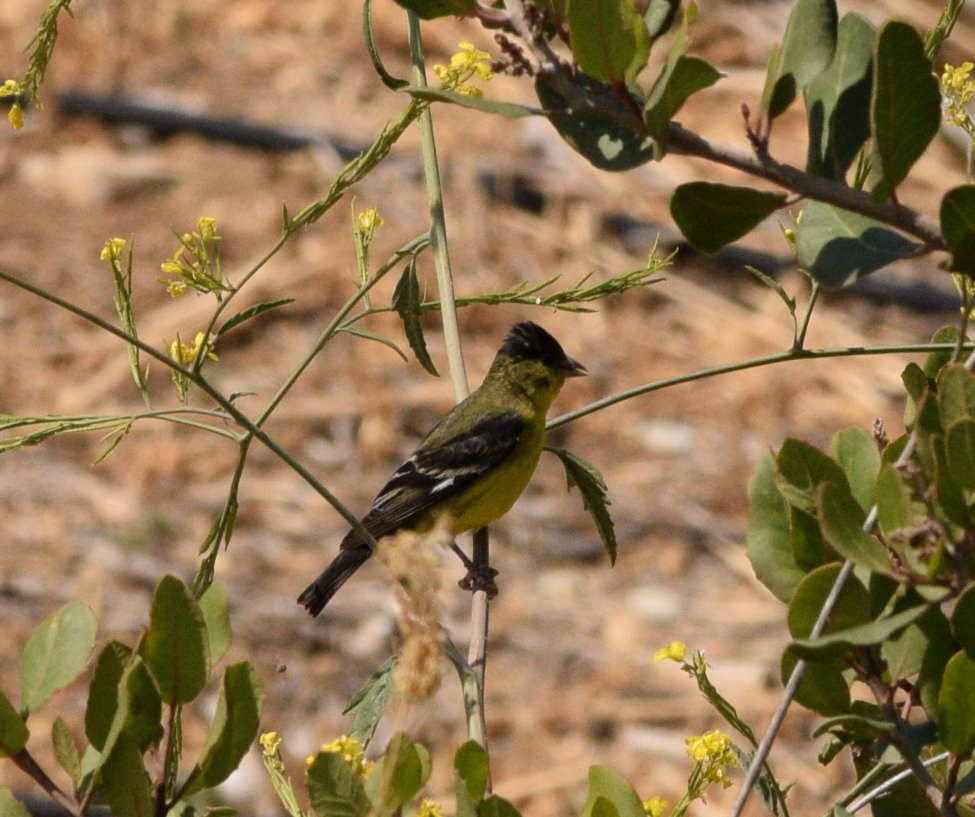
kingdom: Animalia
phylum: Chordata
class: Aves
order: Passeriformes
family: Fringillidae
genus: Spinus
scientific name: Spinus psaltria
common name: Lesser goldfinch
